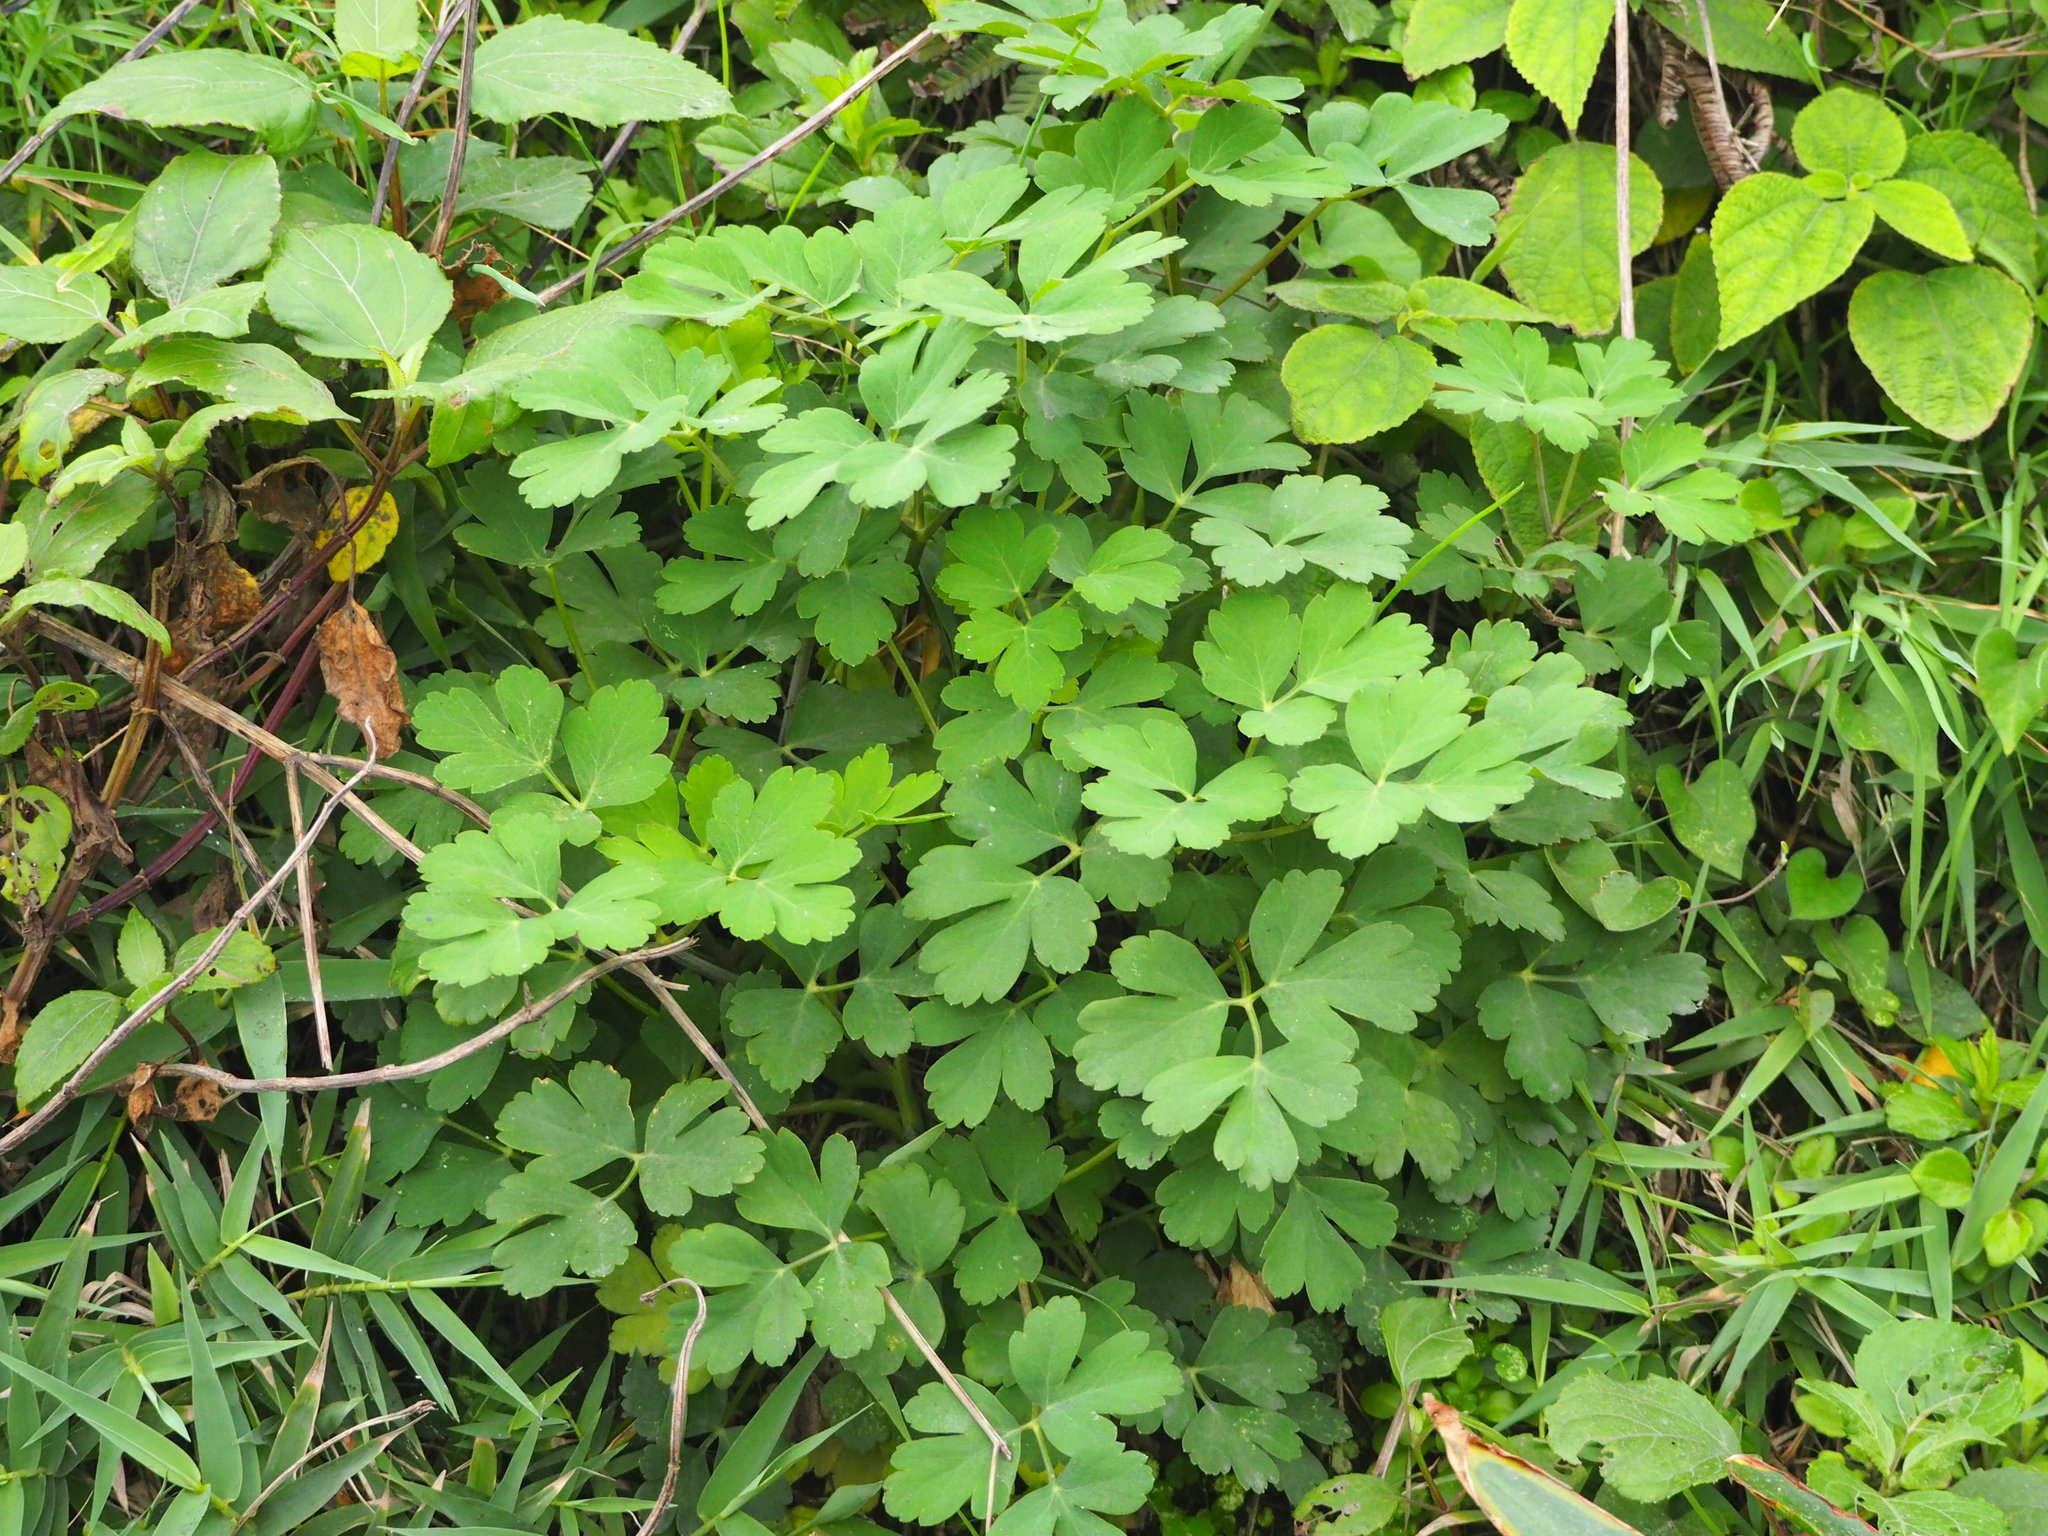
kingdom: Plantae
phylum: Tracheophyta
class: Magnoliopsida
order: Apiales
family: Apiaceae
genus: Peucedanum
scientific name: Peucedanum japonicum
